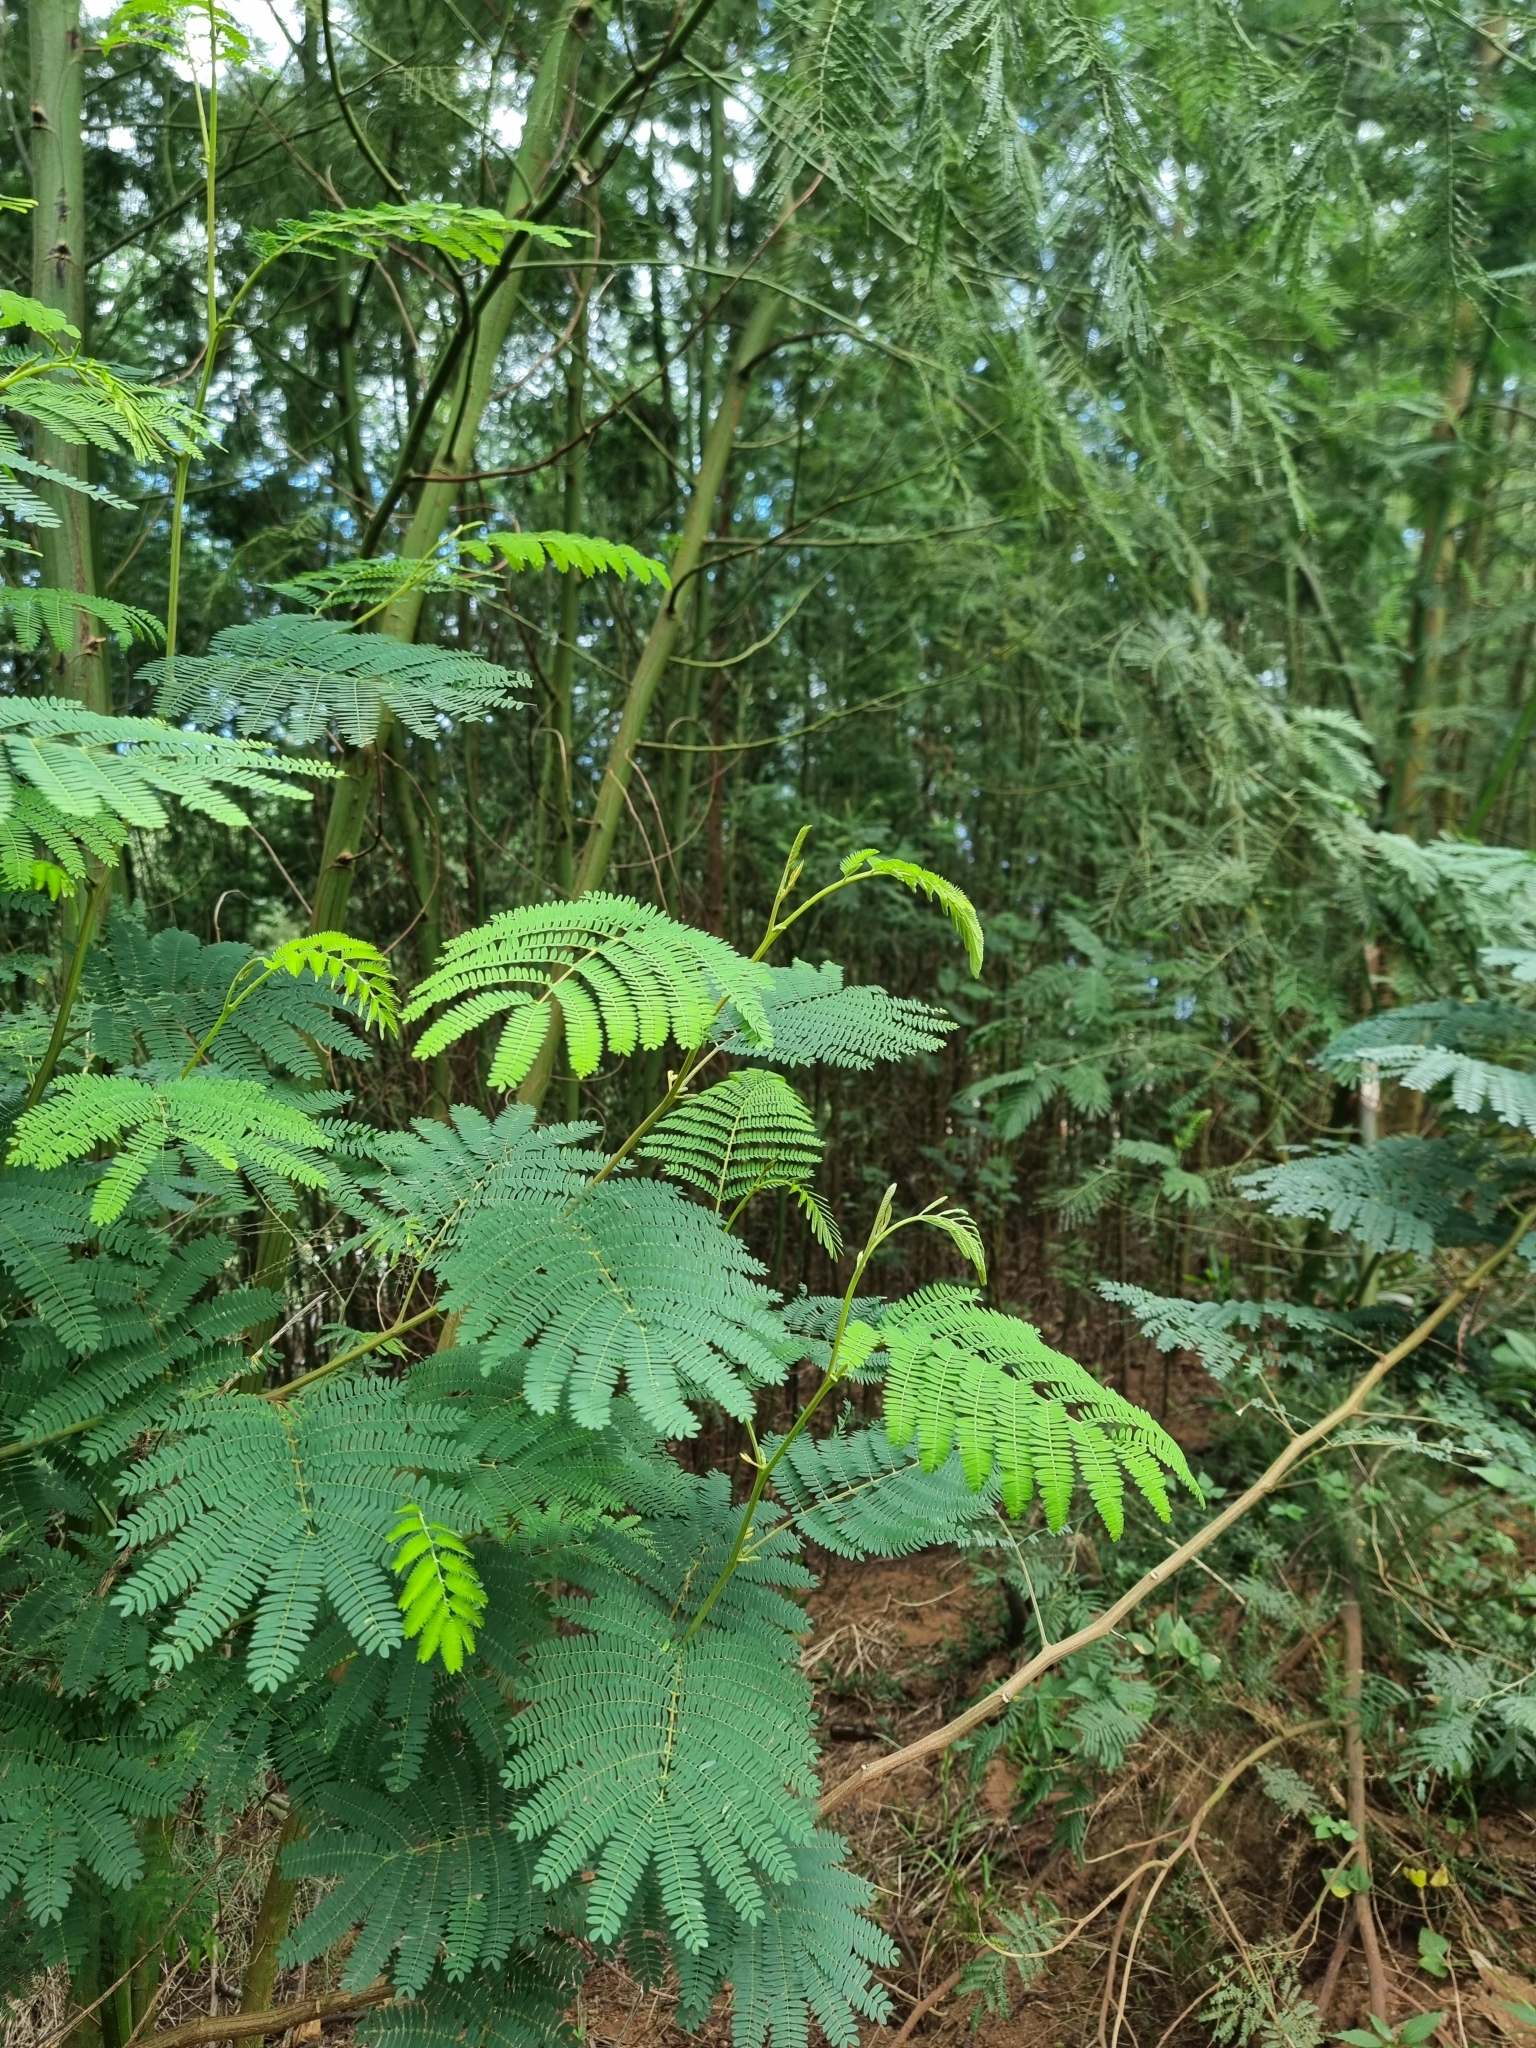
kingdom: Plantae
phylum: Tracheophyta
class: Magnoliopsida
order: Fabales
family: Fabaceae
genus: Paraserianthes
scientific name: Paraserianthes lophantha
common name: Plume albizia
